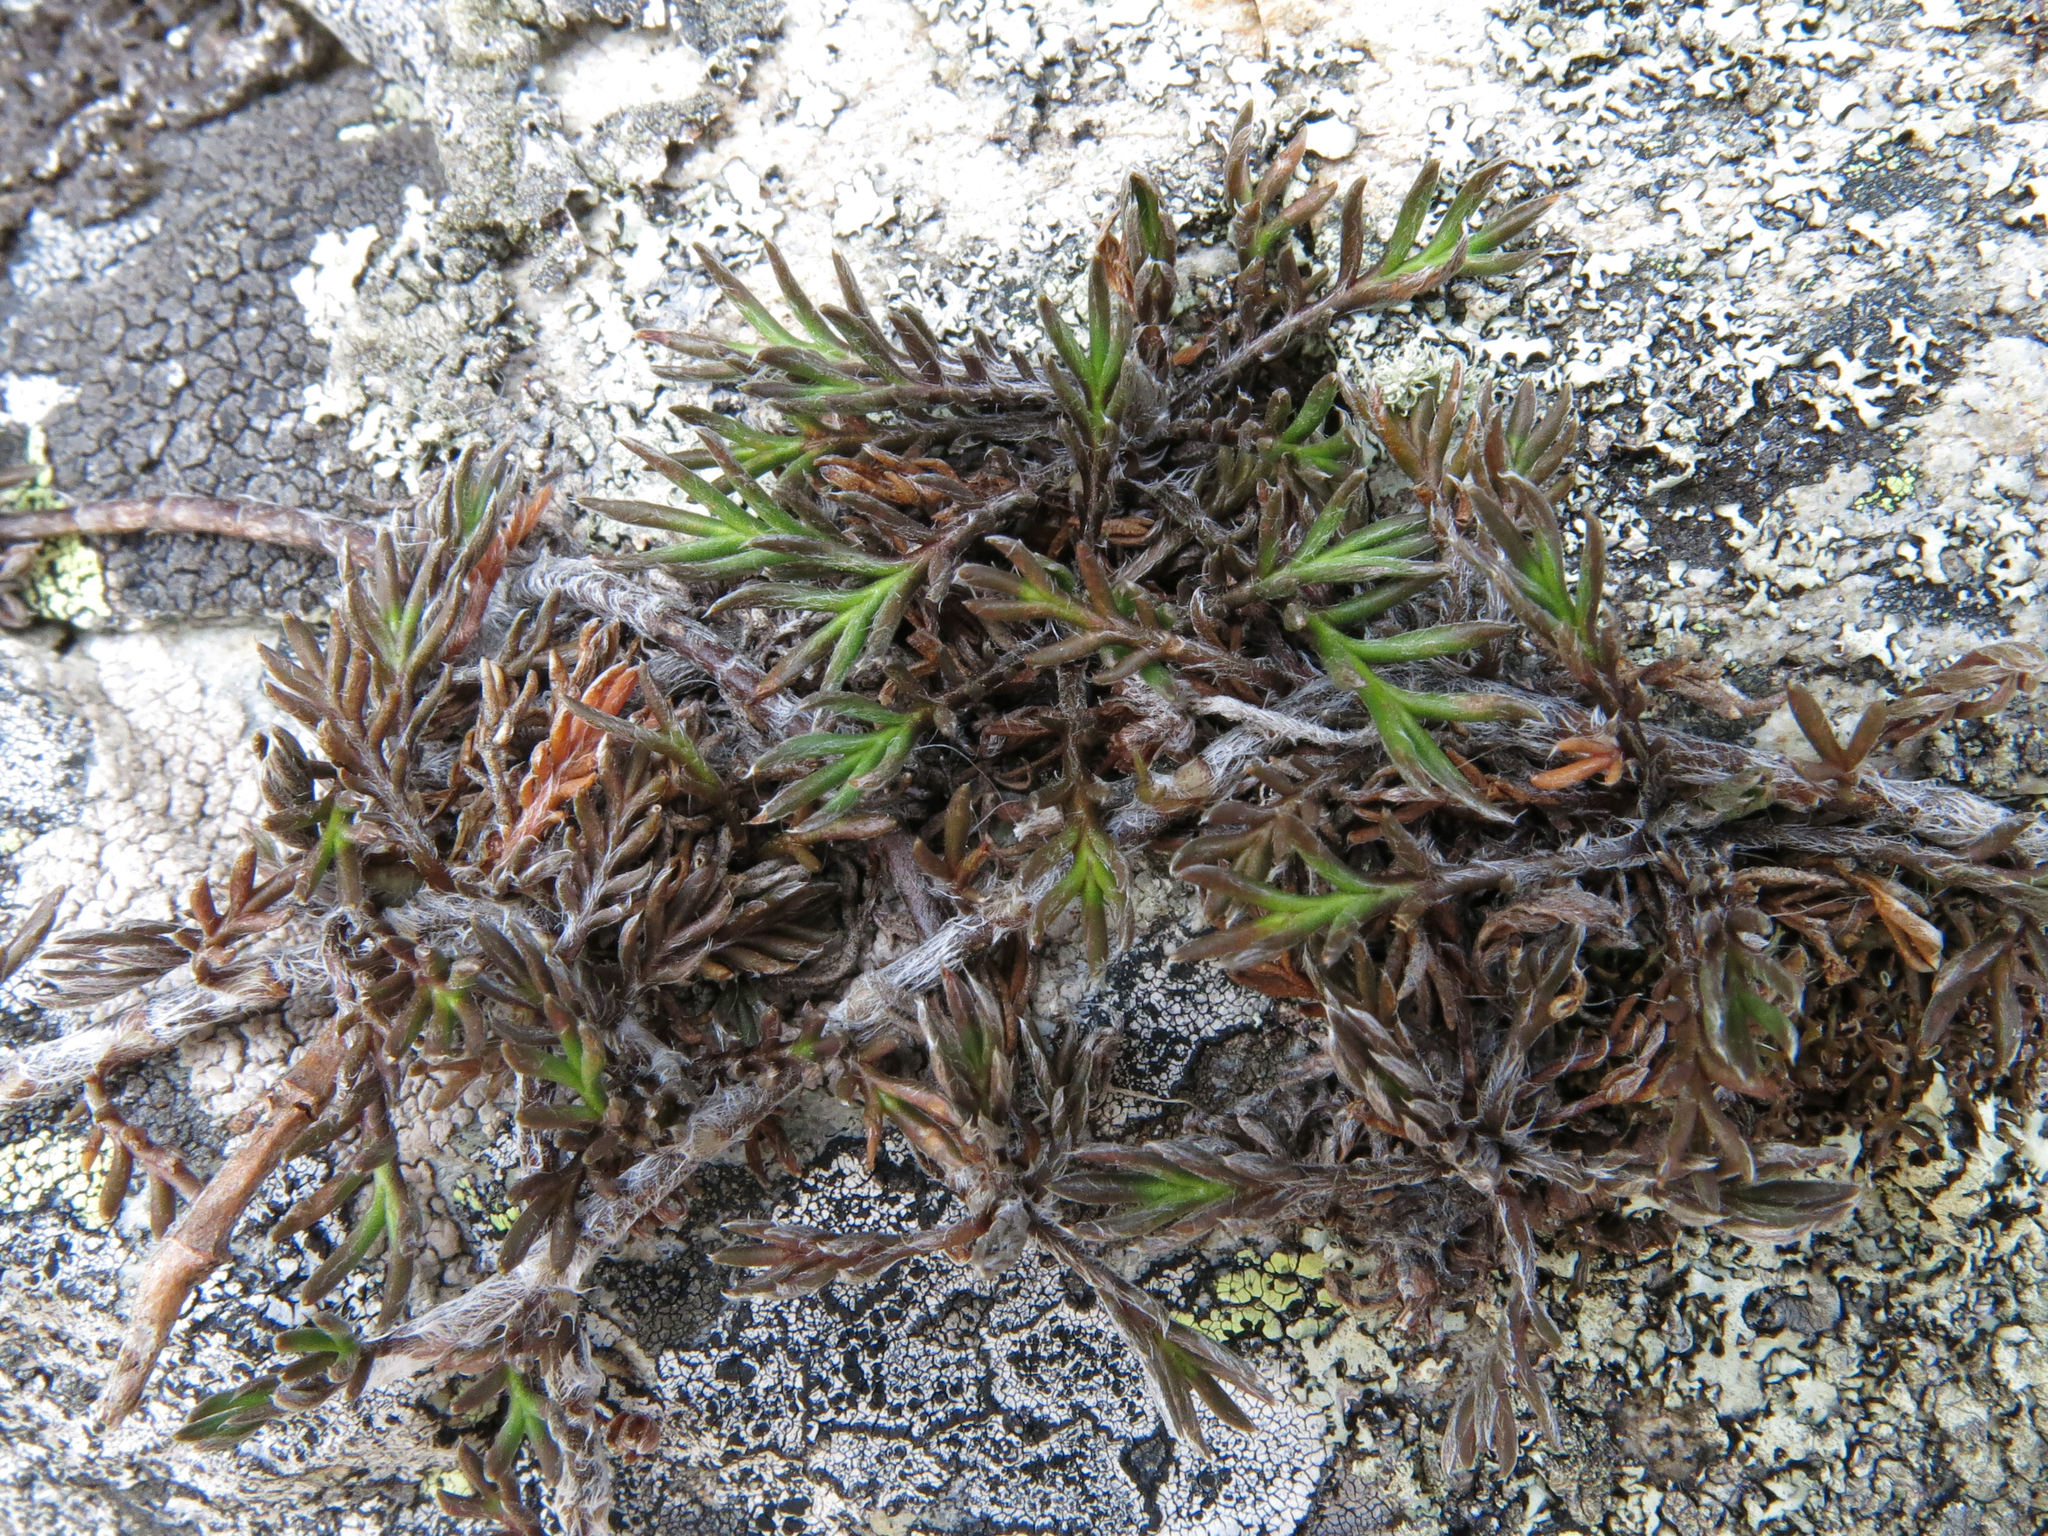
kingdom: Plantae
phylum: Tracheophyta
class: Magnoliopsida
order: Asterales
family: Asteraceae
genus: Leptinella
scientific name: Leptinella pectinata
